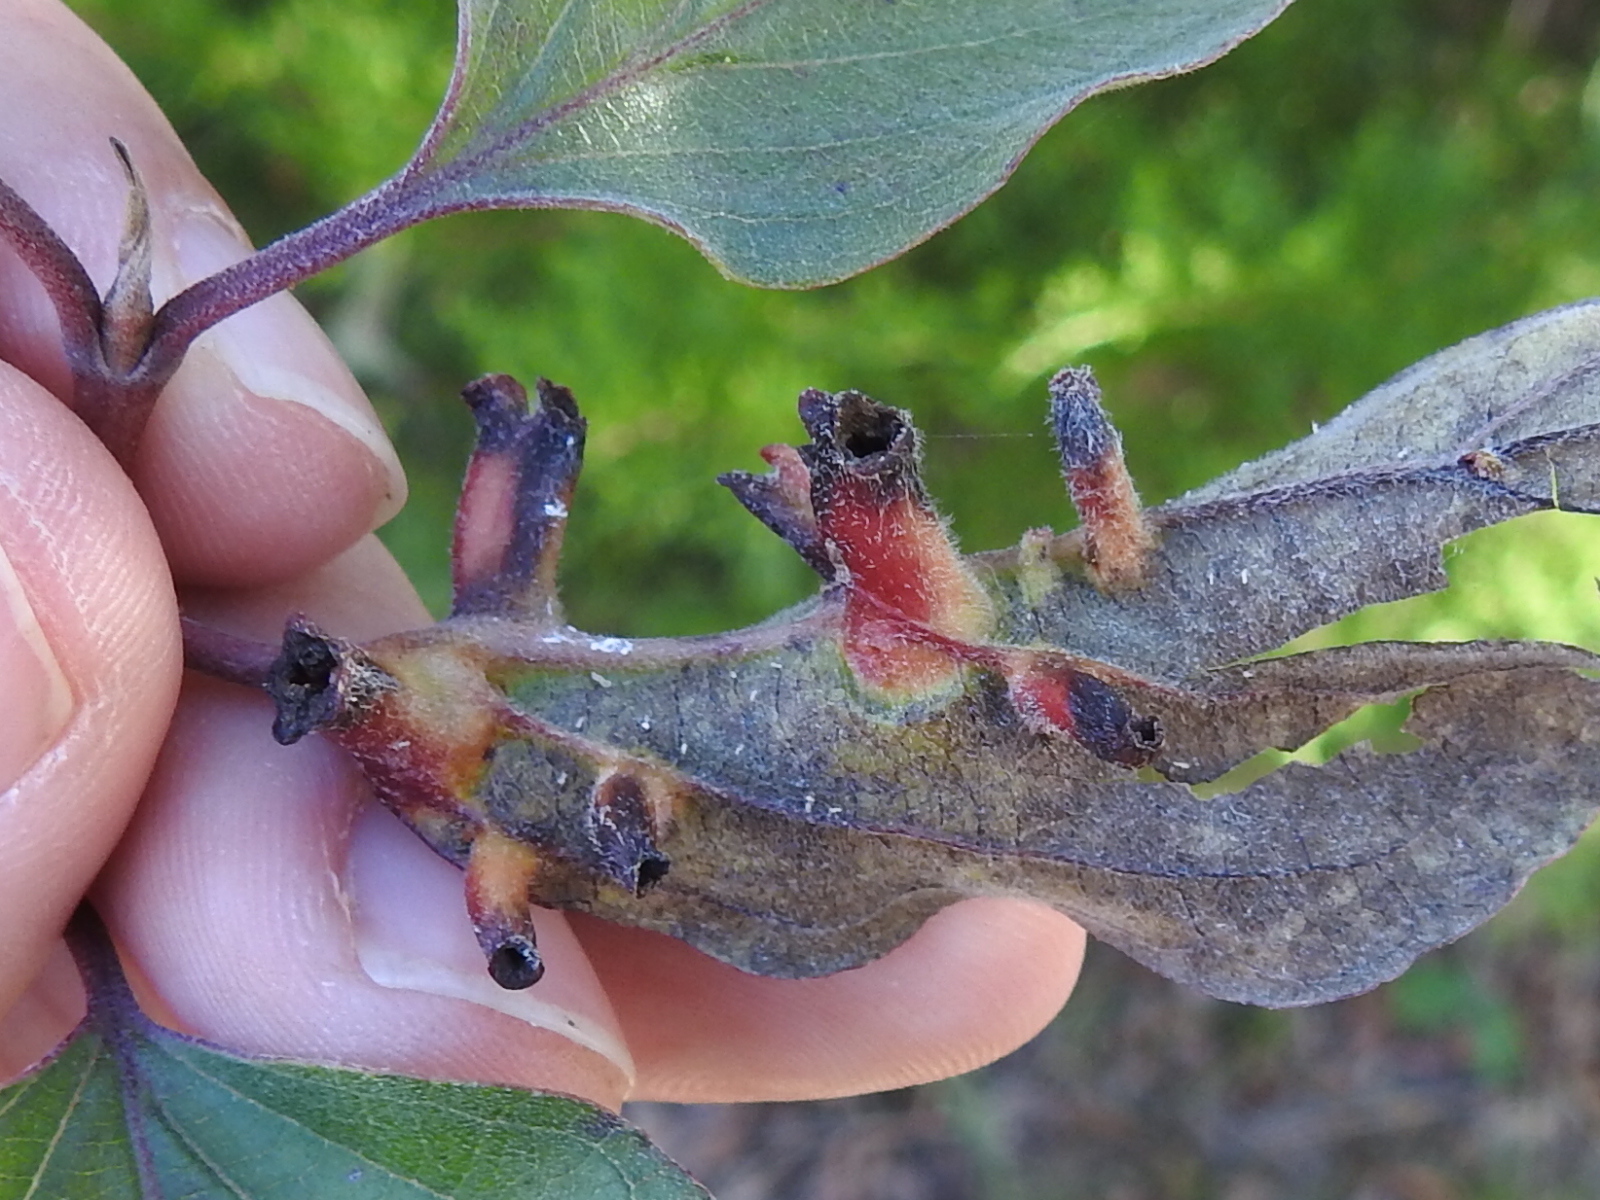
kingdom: Animalia
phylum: Arthropoda
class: Insecta
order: Diptera
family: Cecidomyiidae
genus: Dasineura
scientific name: Dasineura tuba
